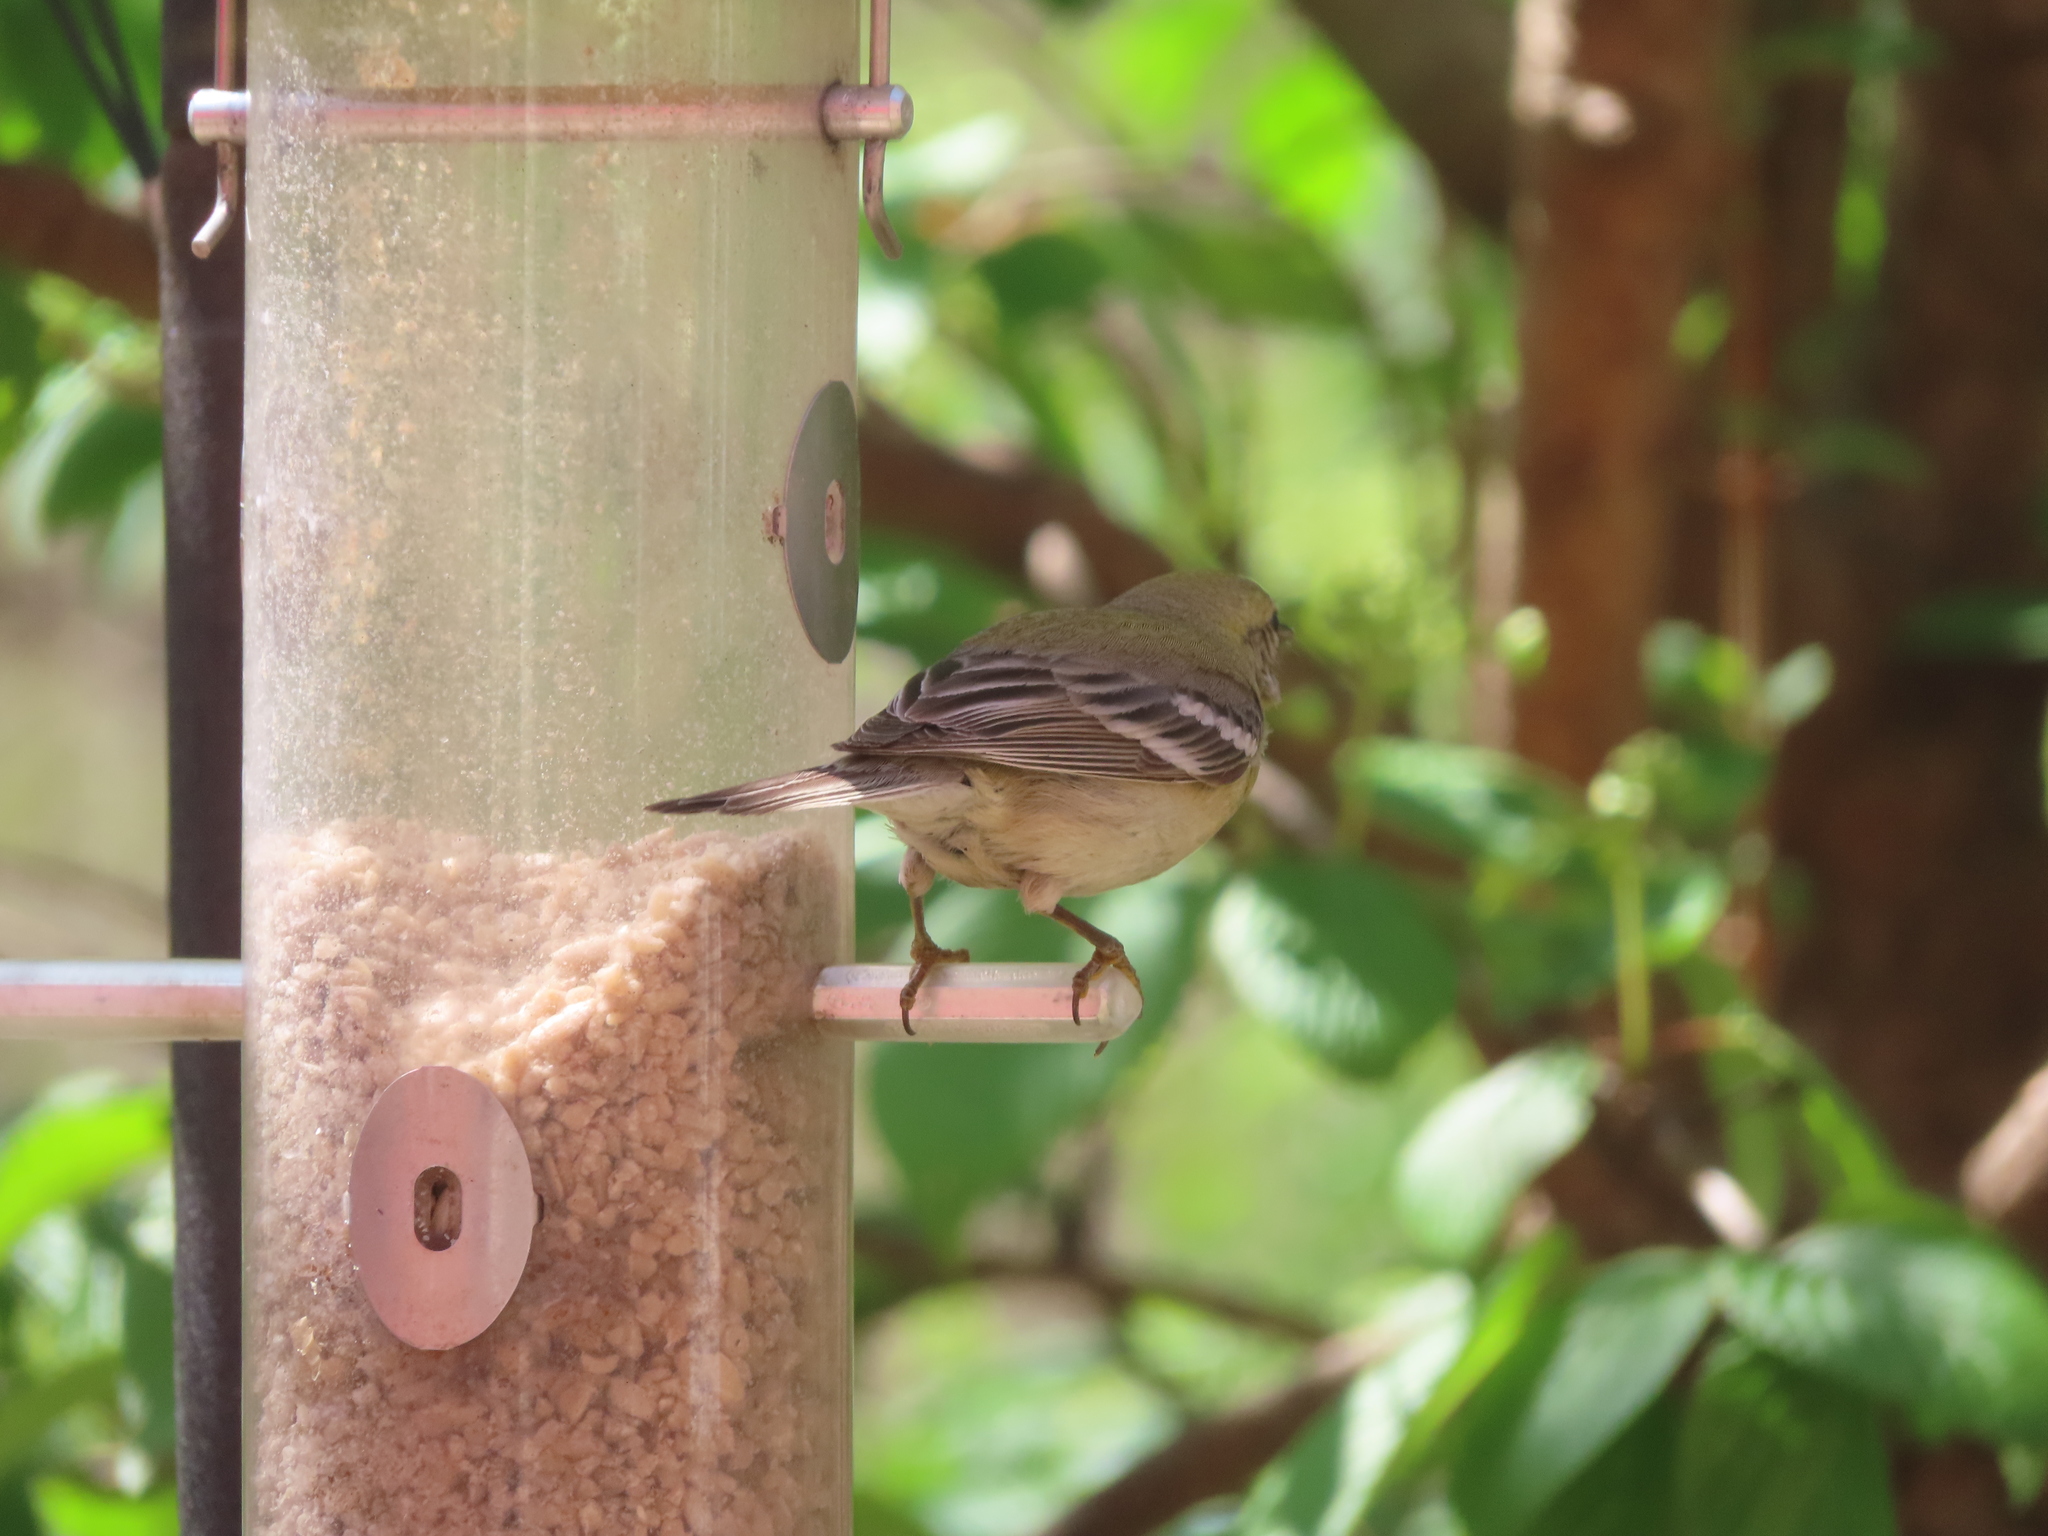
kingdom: Animalia
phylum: Chordata
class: Aves
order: Passeriformes
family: Parulidae
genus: Setophaga
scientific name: Setophaga pinus
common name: Pine warbler
